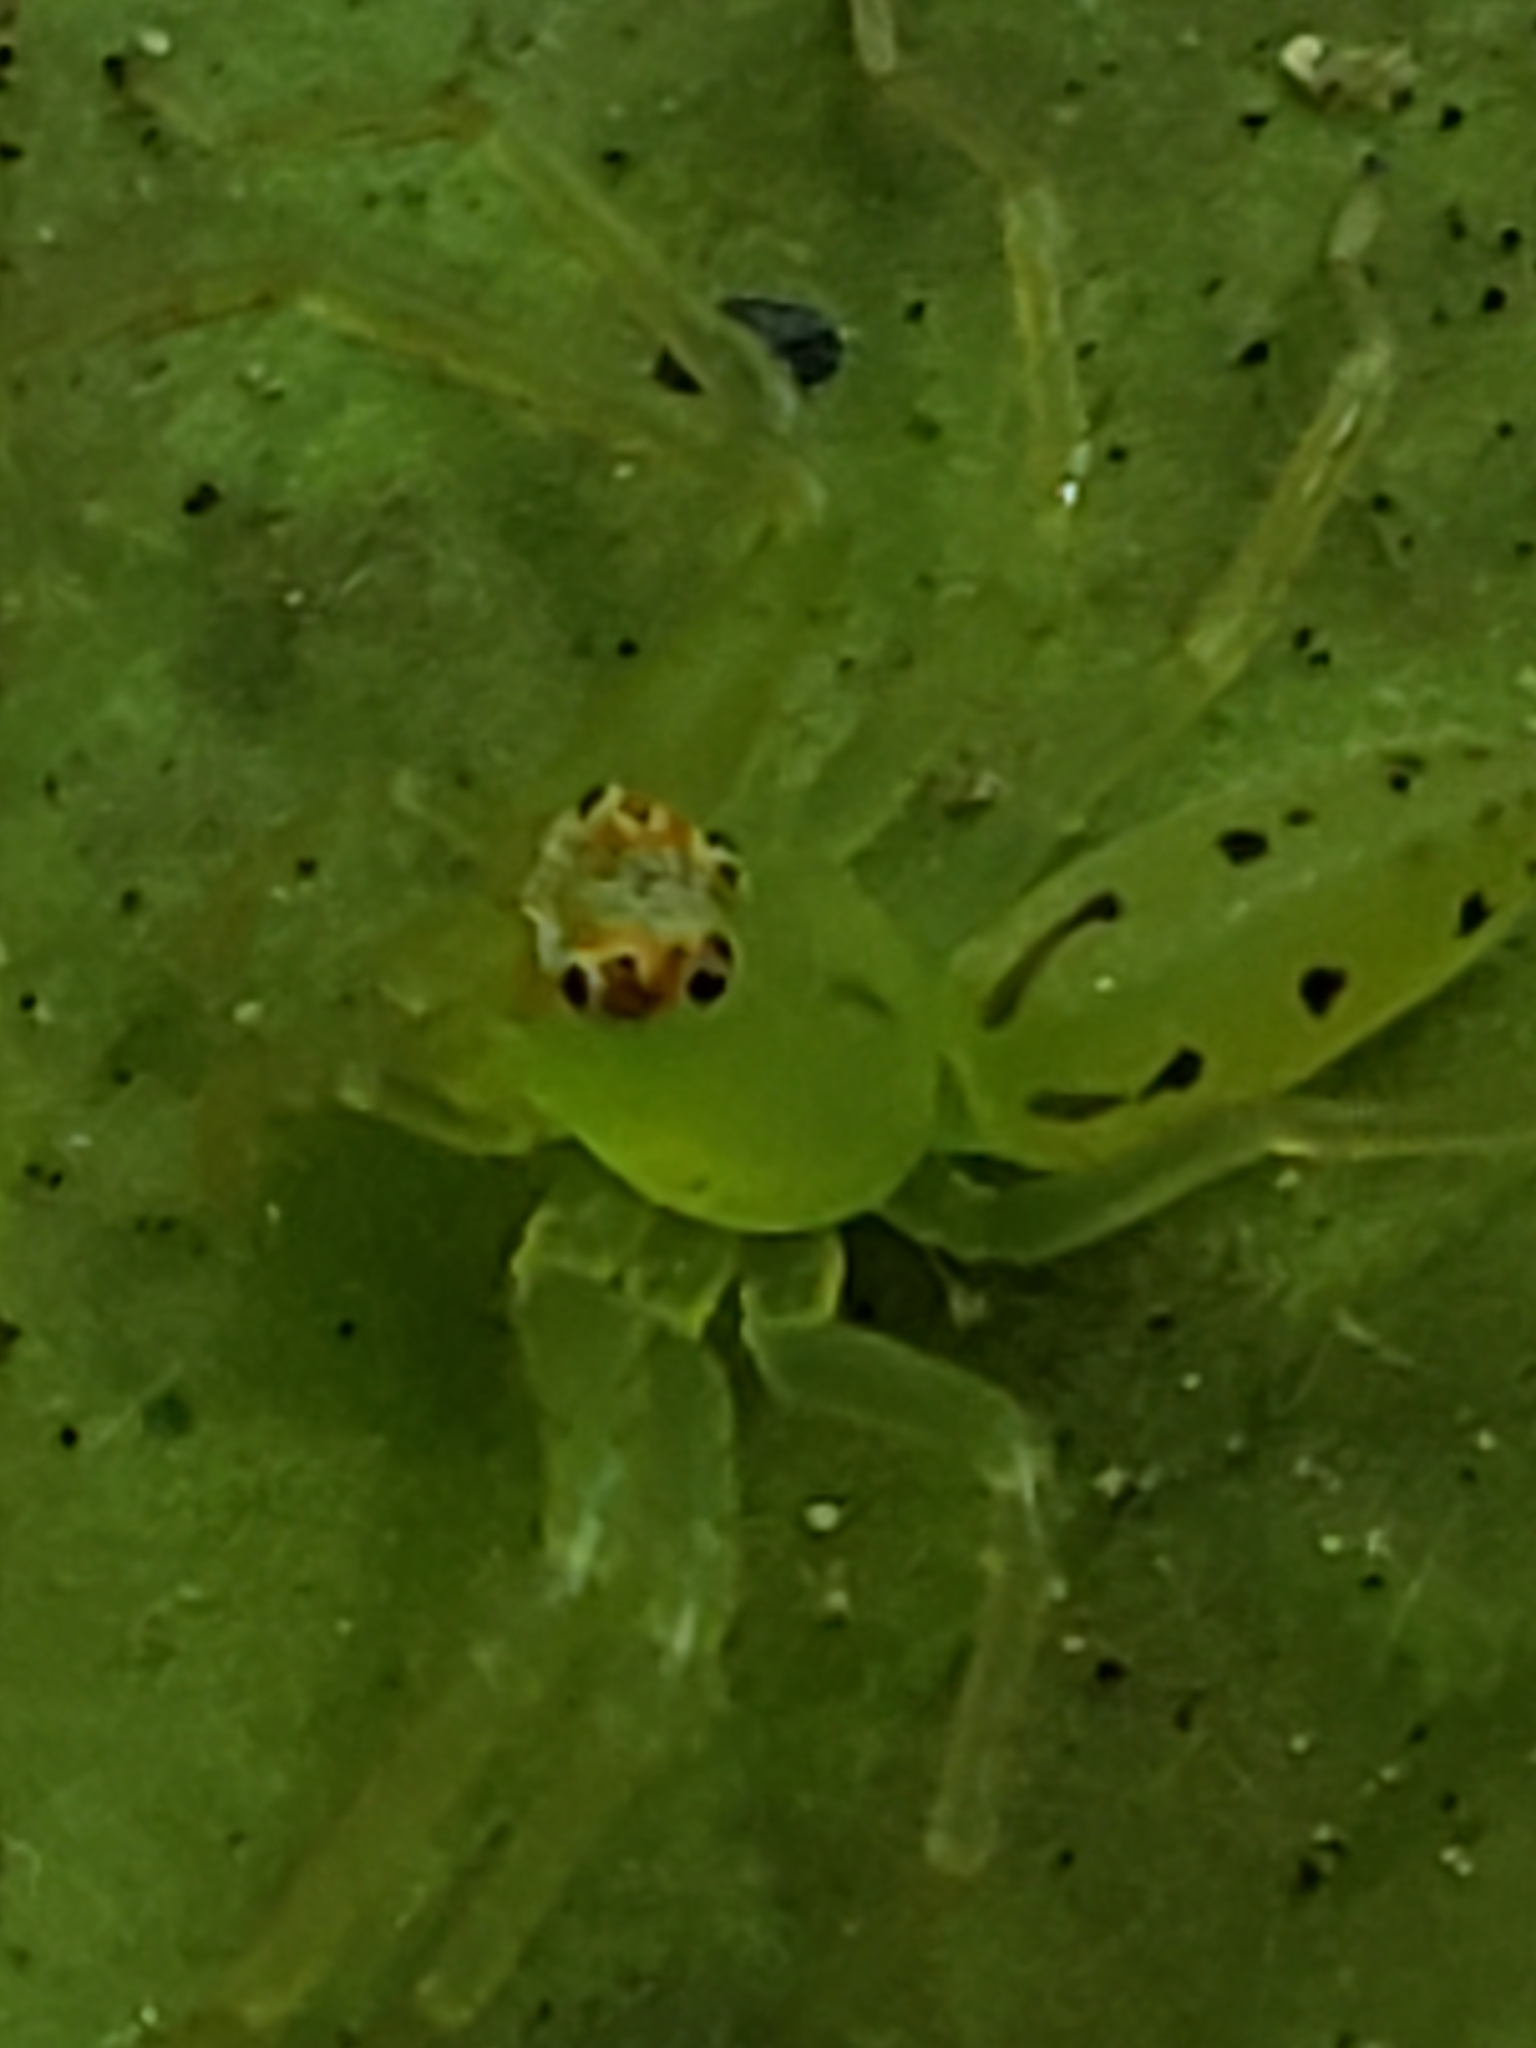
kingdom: Animalia
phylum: Arthropoda
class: Arachnida
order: Araneae
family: Salticidae
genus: Lyssomanes
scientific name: Lyssomanes viridis
